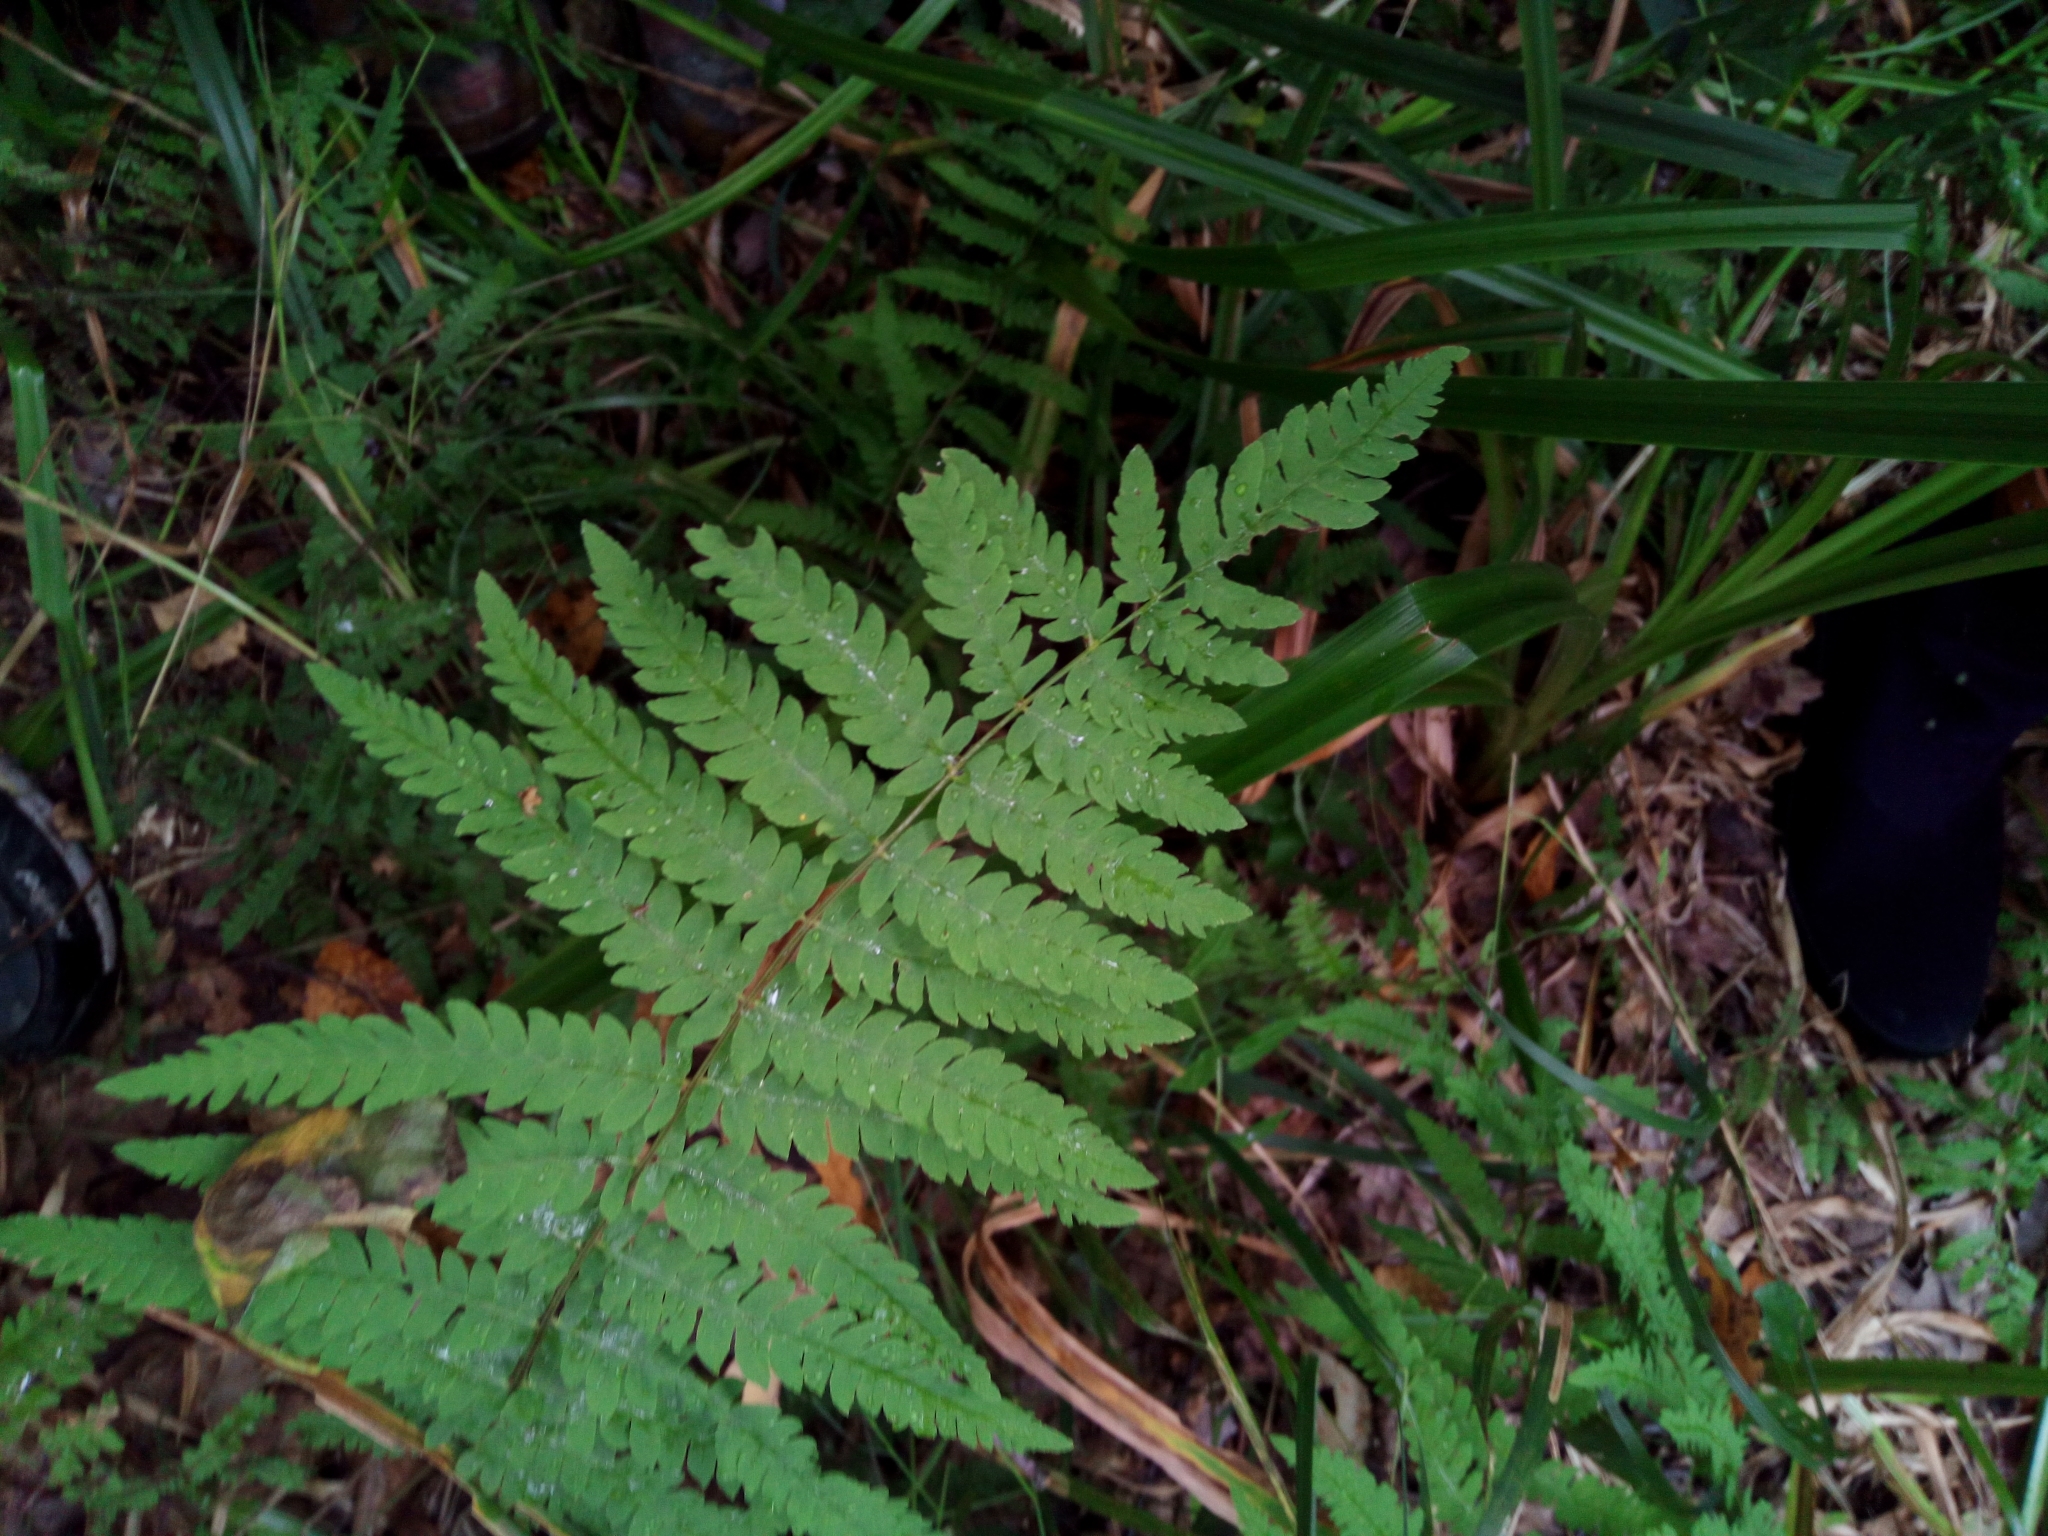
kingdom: Plantae
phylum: Tracheophyta
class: Polypodiopsida
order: Polypodiales
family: Thelypteridaceae
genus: Thelypteris
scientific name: Thelypteris palustris
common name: Marsh fern
